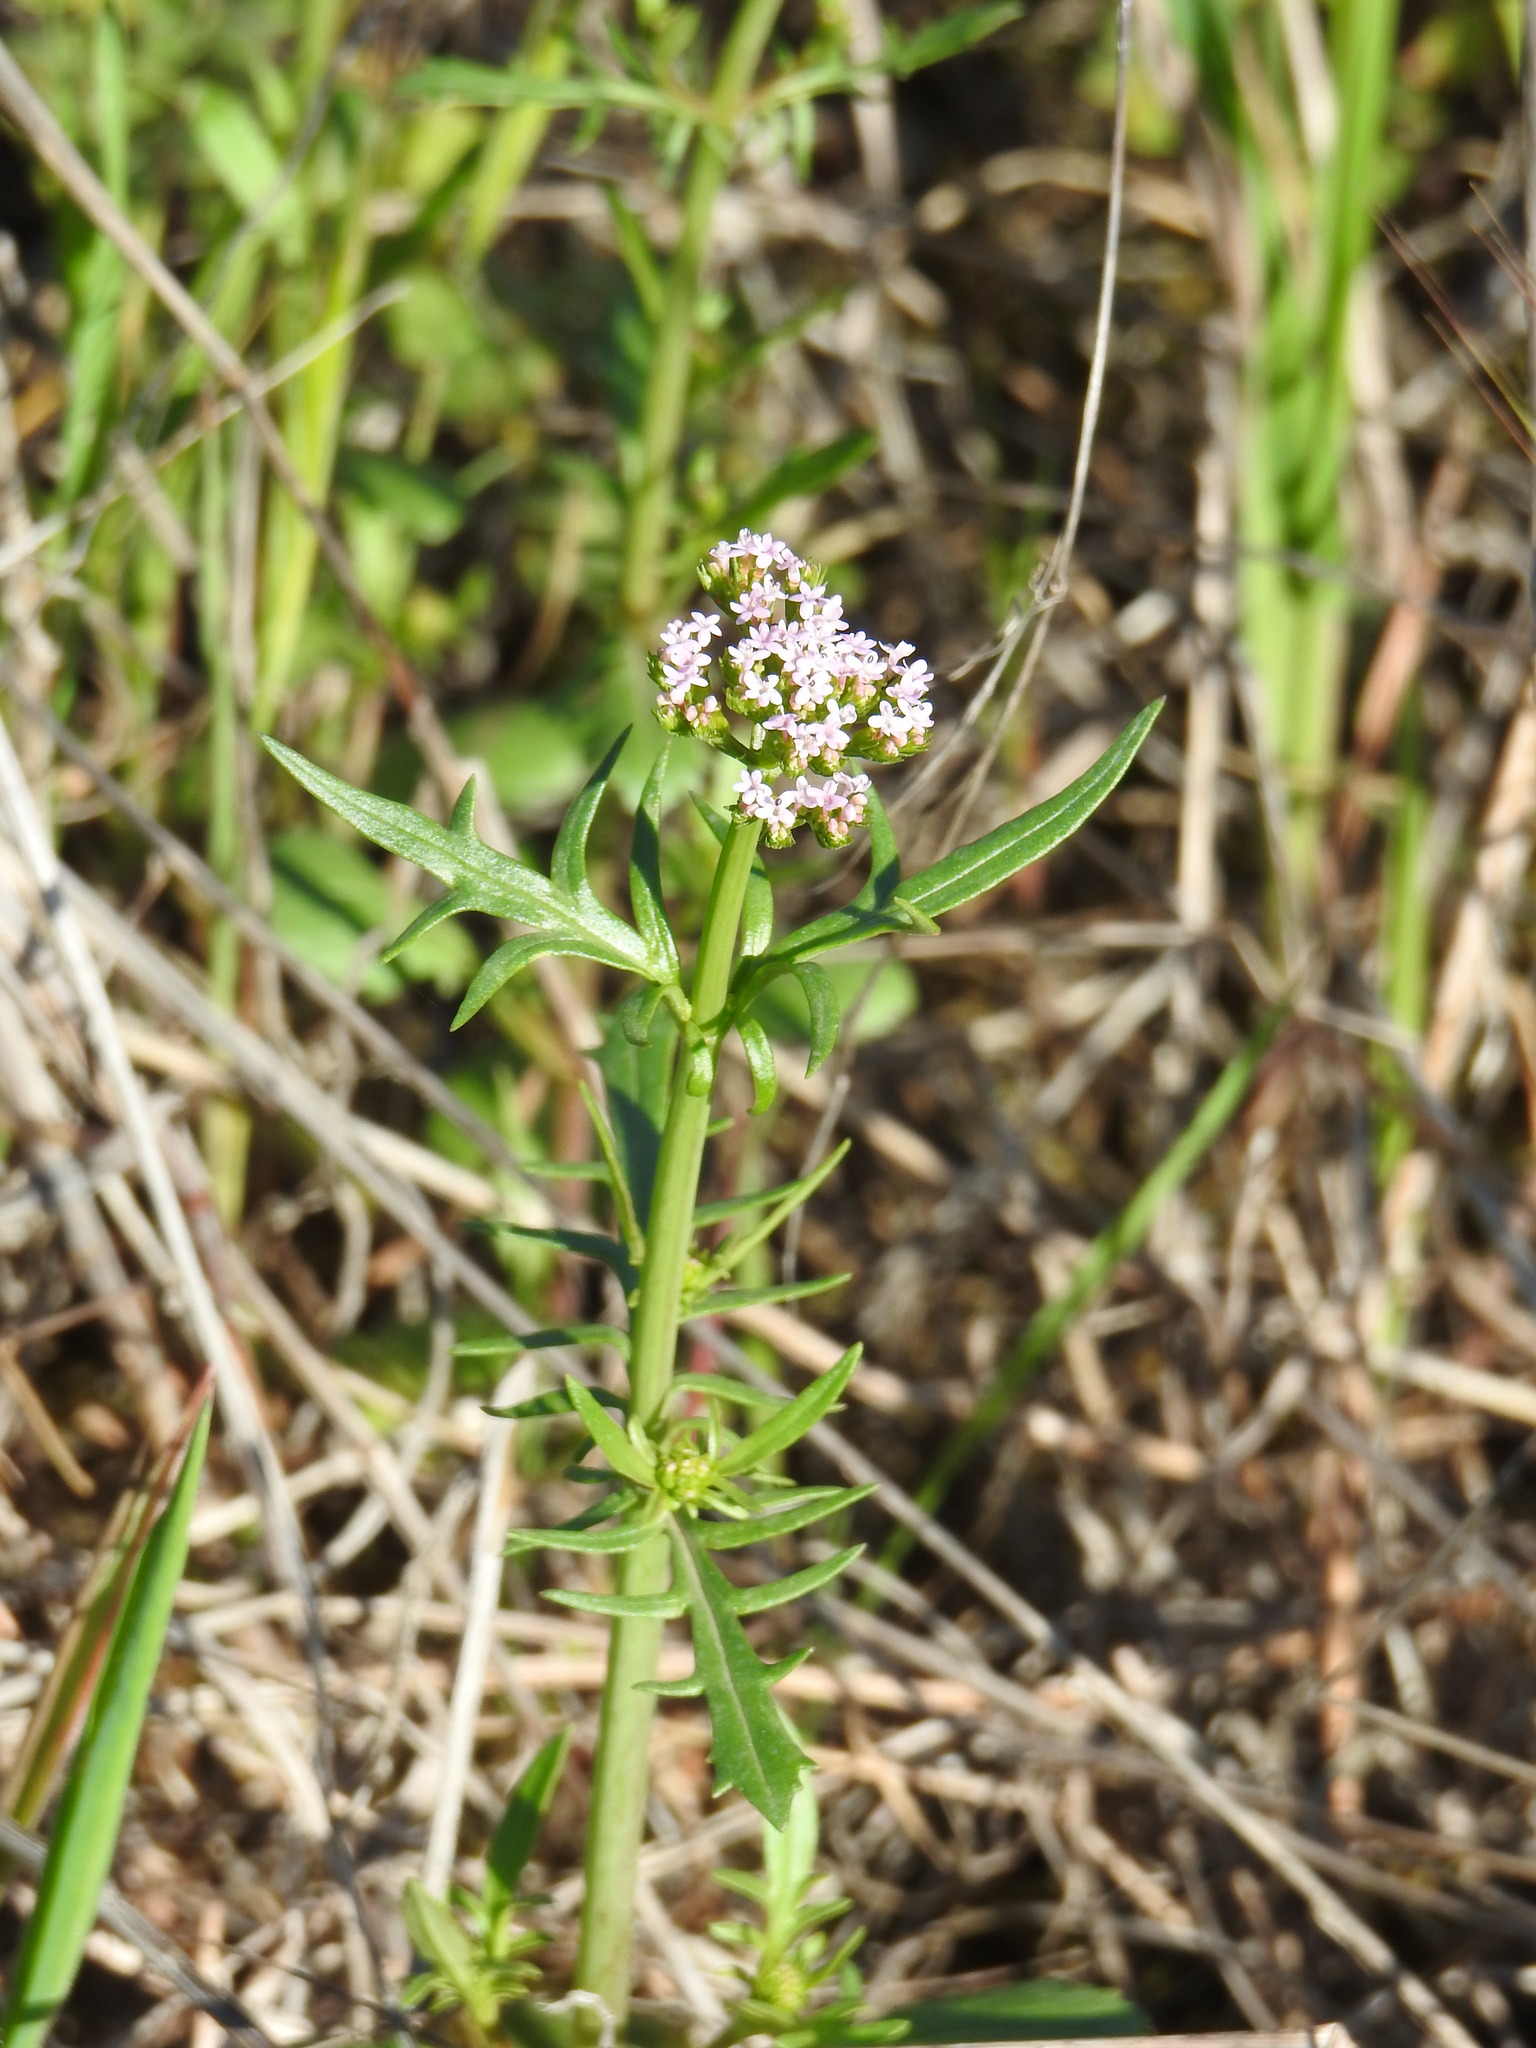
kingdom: Plantae
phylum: Tracheophyta
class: Magnoliopsida
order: Dipsacales
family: Caprifoliaceae
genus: Centranthus
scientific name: Centranthus calcitrapae
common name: Annual valerian
